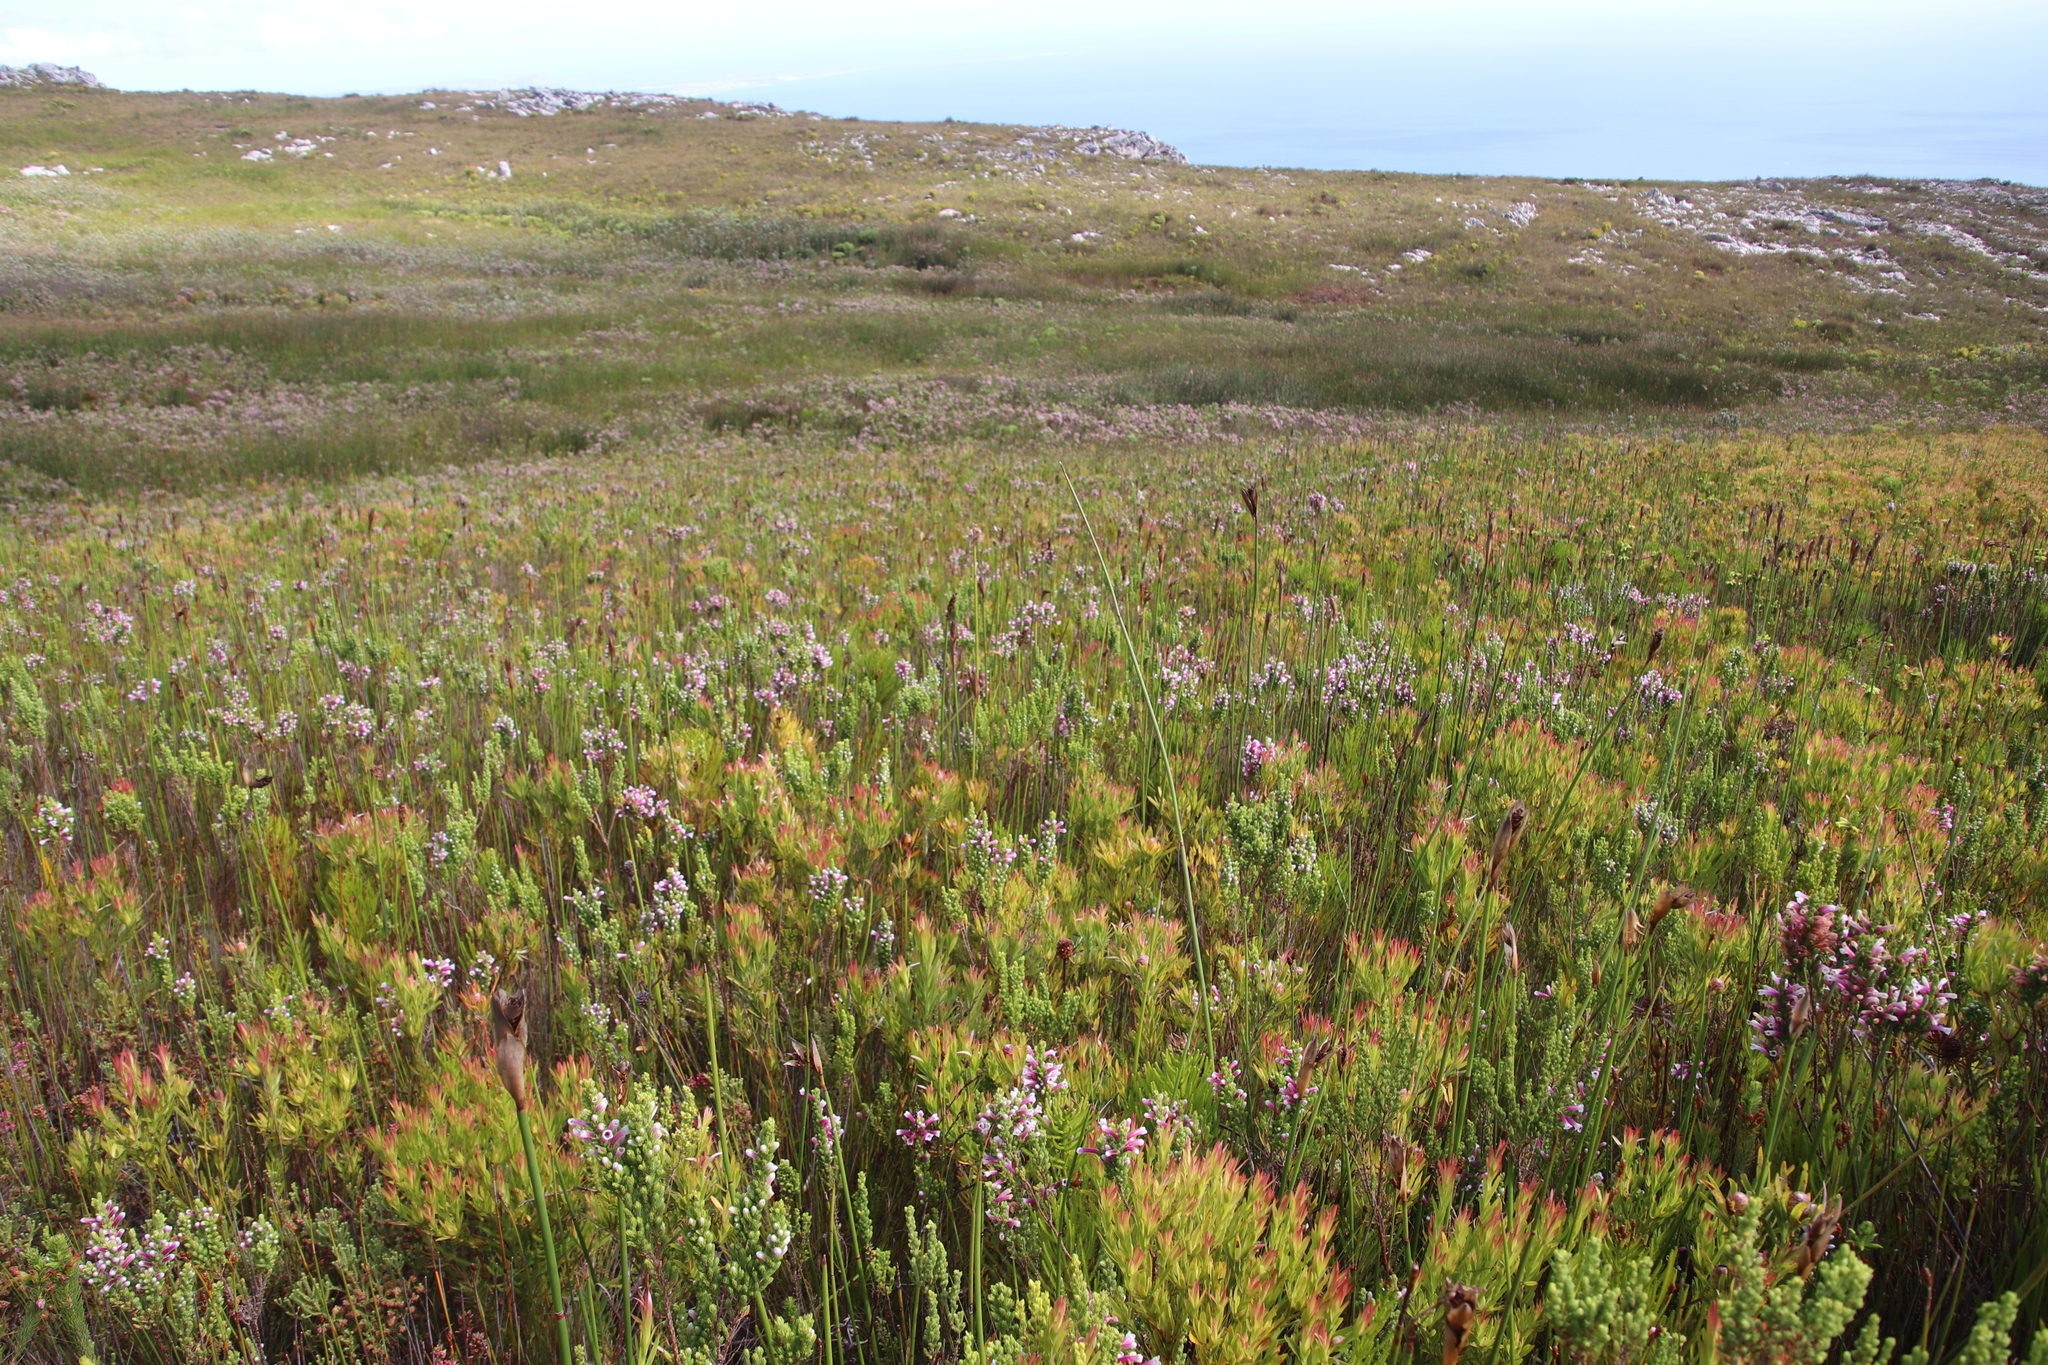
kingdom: Plantae
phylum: Tracheophyta
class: Magnoliopsida
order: Ericales
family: Ericaceae
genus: Erica
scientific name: Erica macowanii
